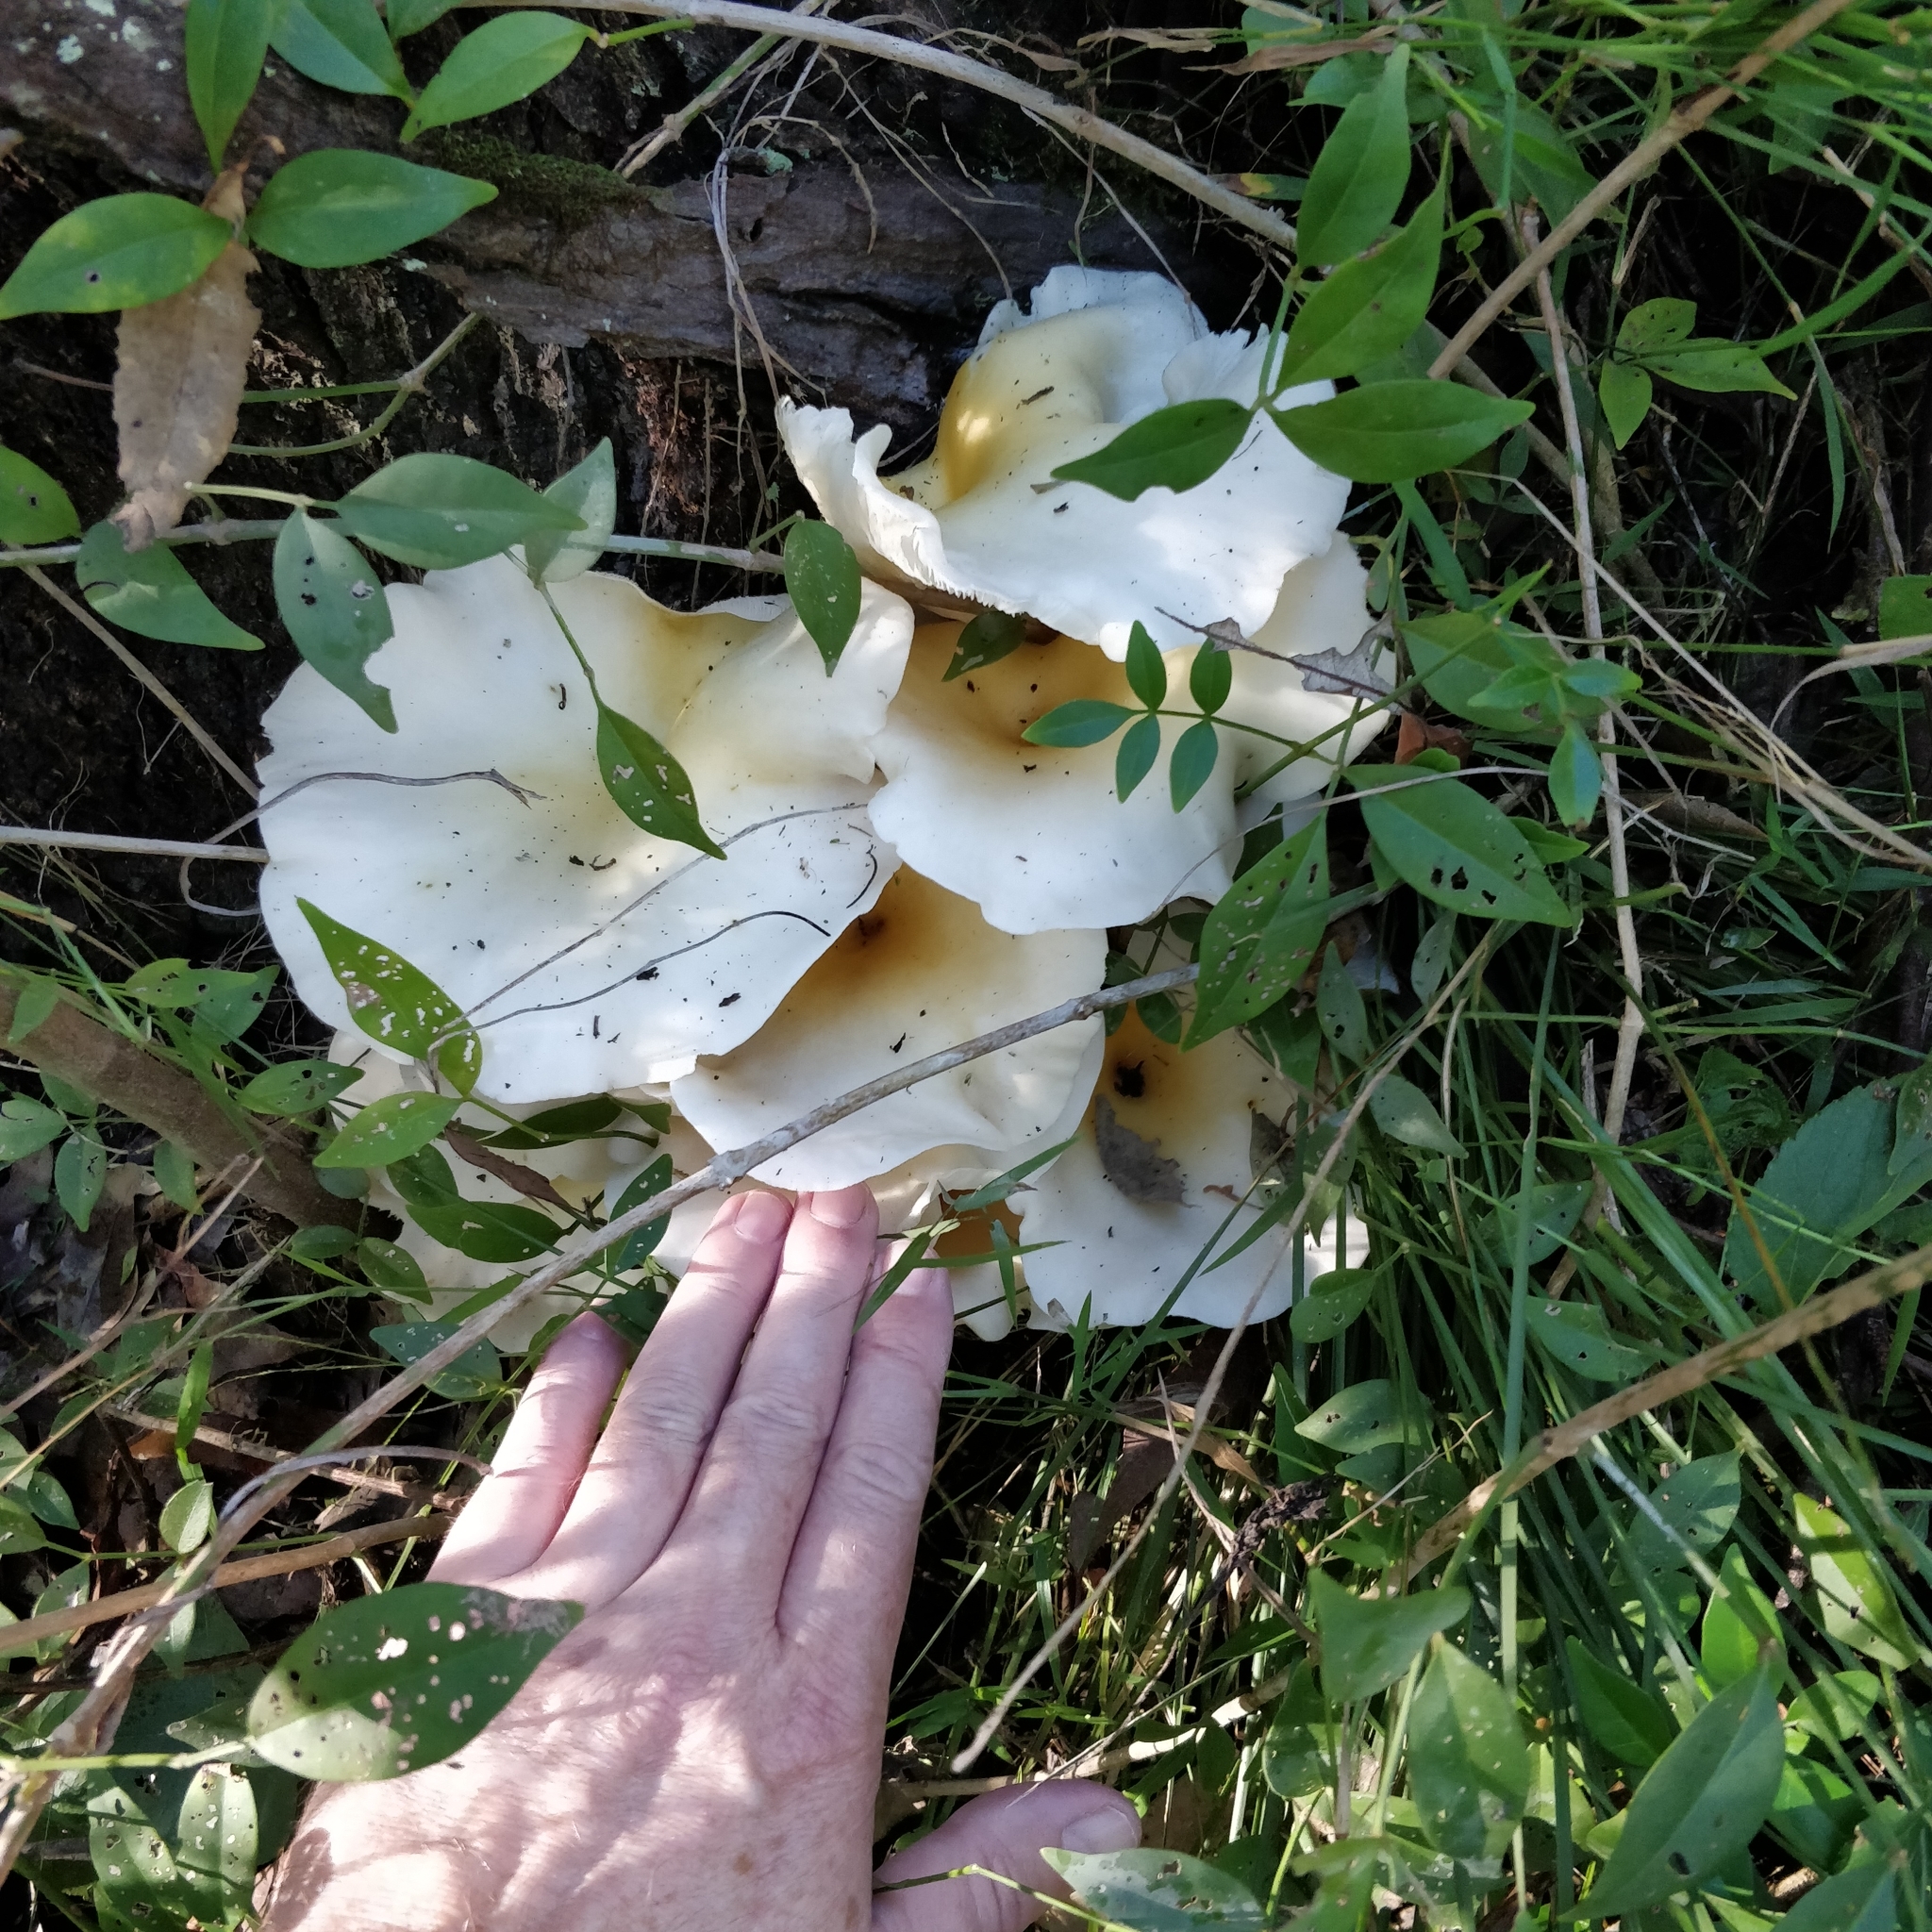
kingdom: Fungi
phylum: Basidiomycota
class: Agaricomycetes
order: Agaricales
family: Omphalotaceae
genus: Omphalotus
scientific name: Omphalotus nidiformis
